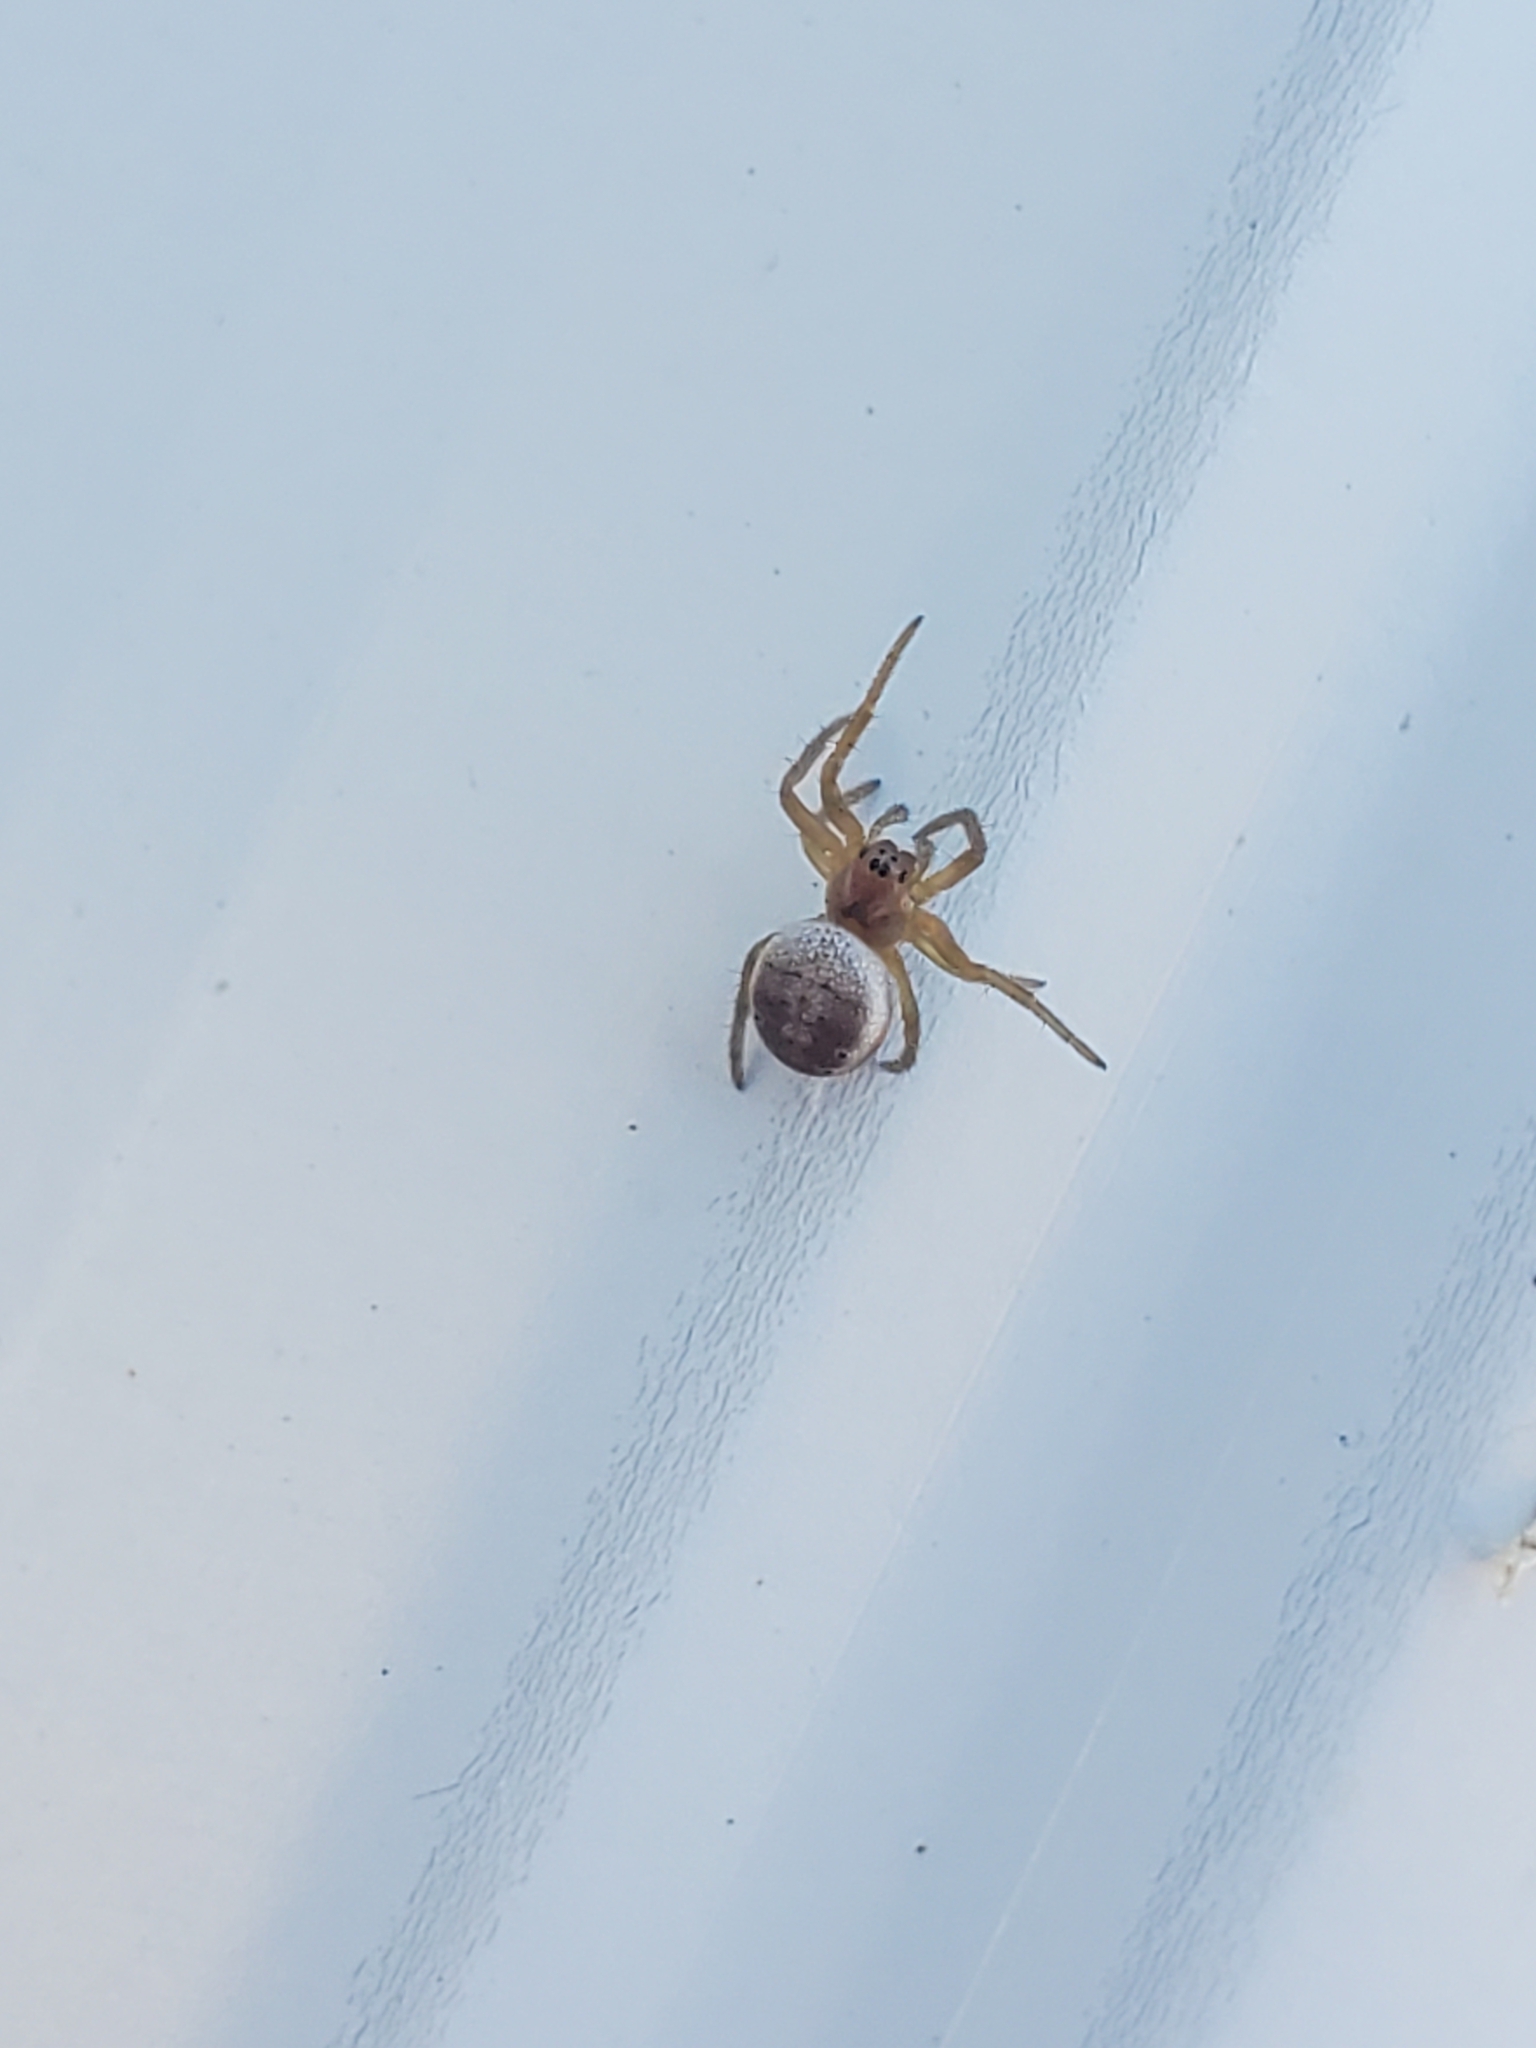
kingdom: Animalia
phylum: Arthropoda
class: Arachnida
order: Araneae
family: Araneidae
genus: Araniella
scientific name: Araniella displicata
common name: Sixspotted orb weaver
